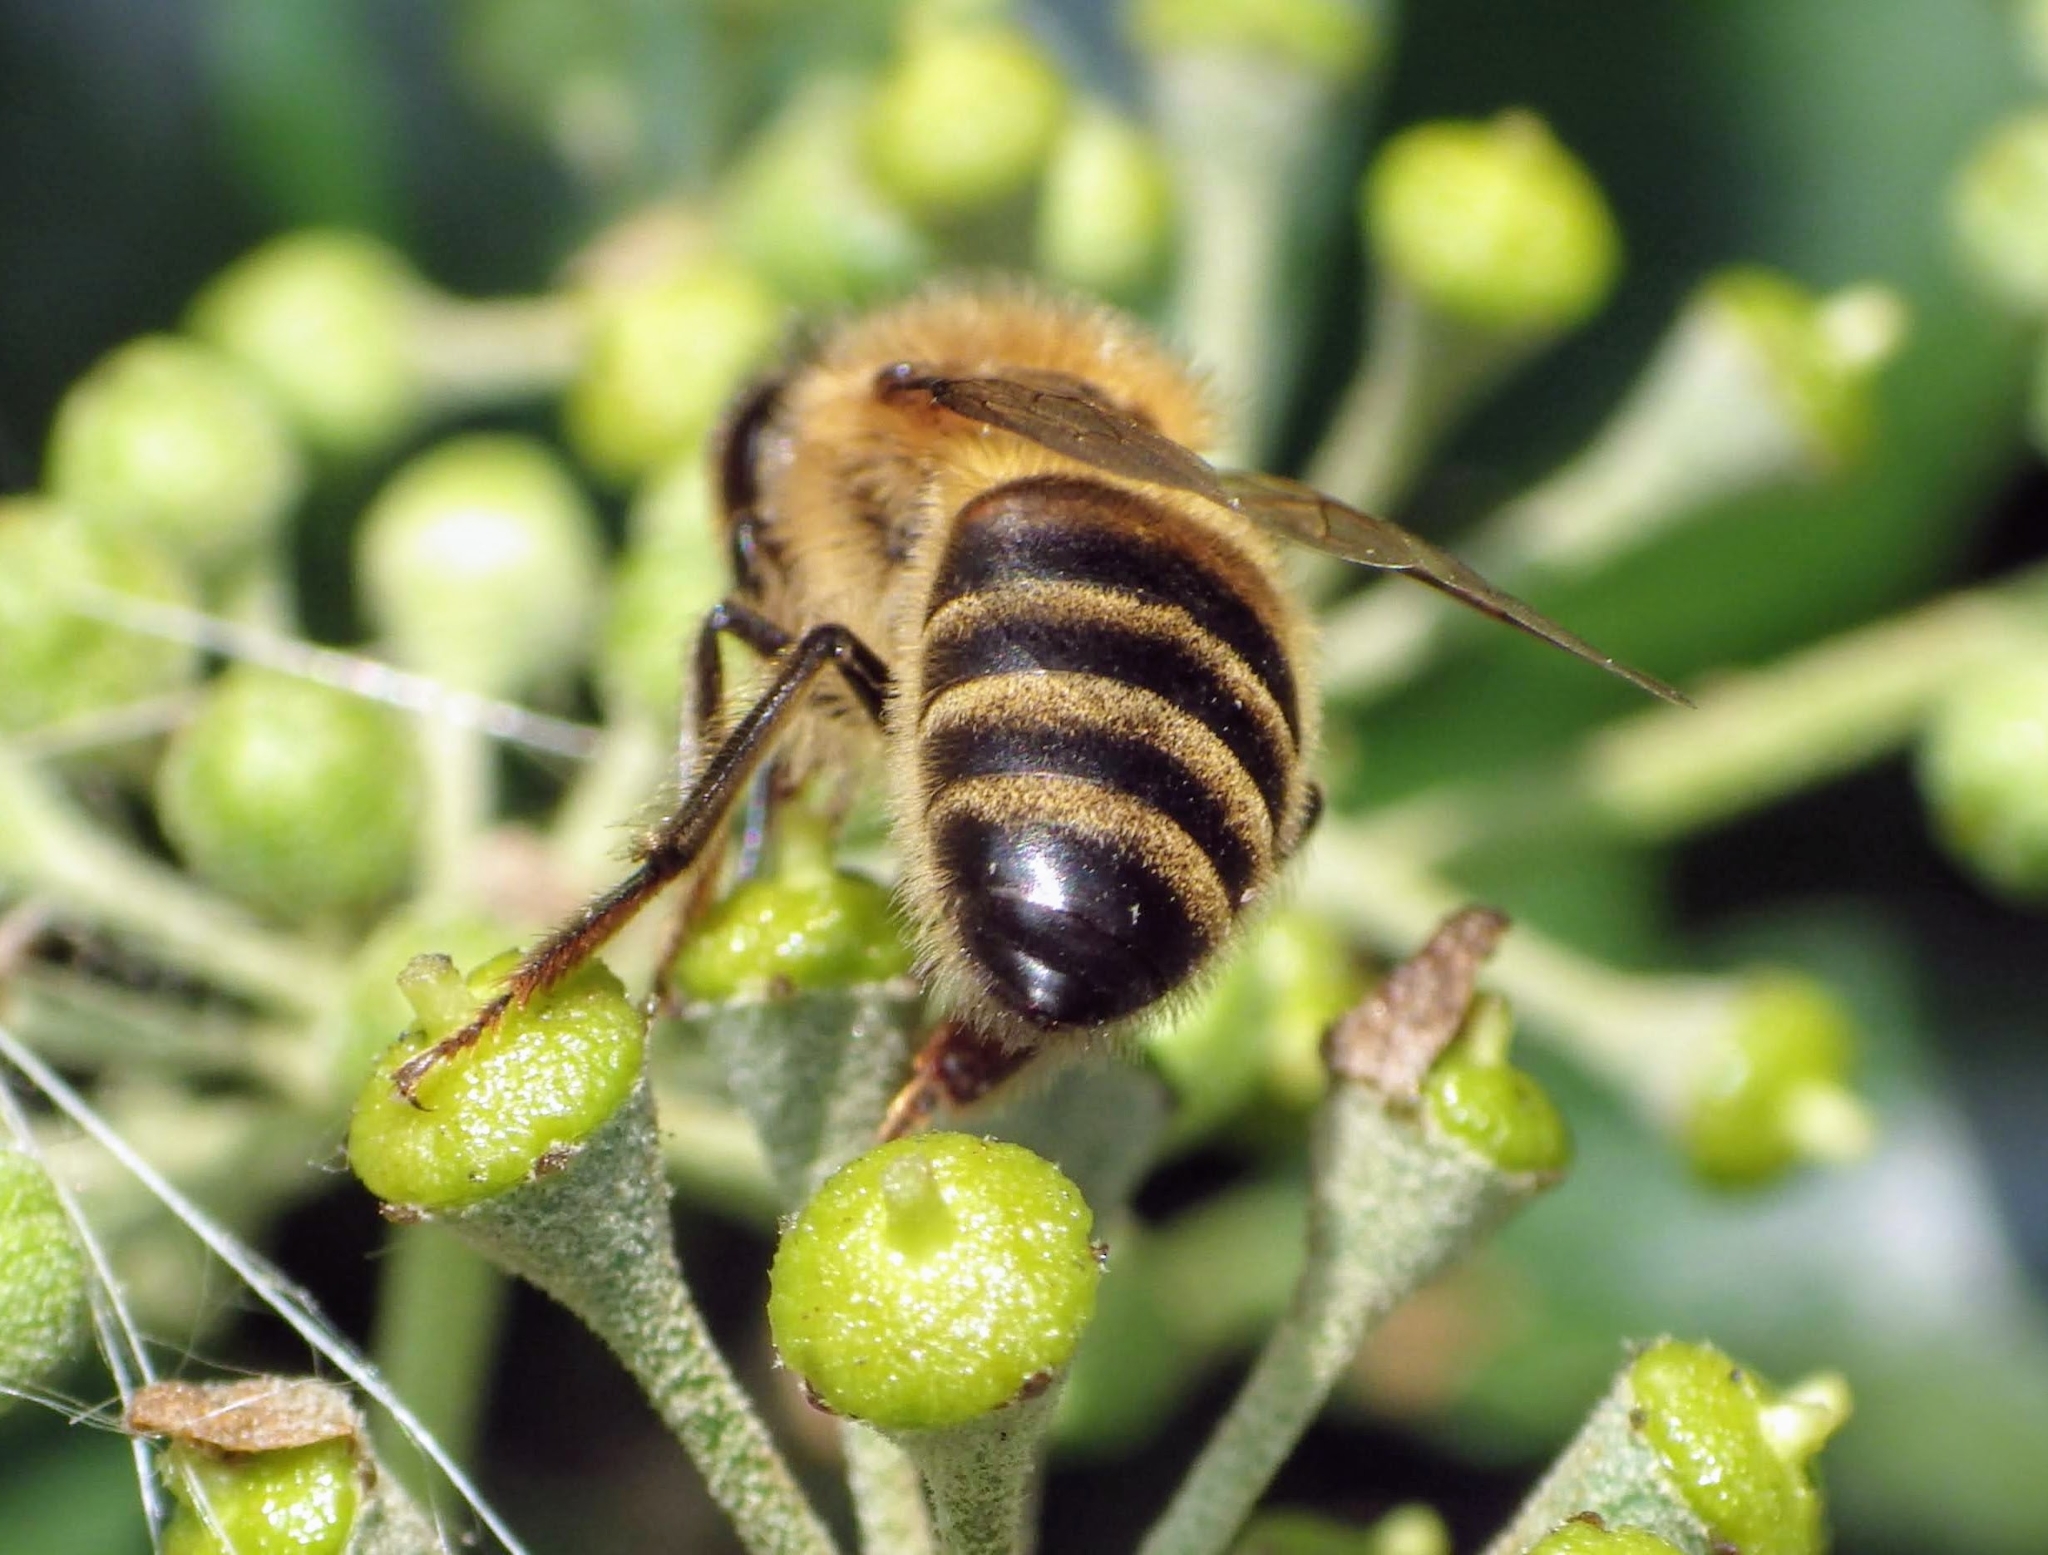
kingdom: Animalia
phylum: Arthropoda
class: Insecta
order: Hymenoptera
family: Apidae
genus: Apis
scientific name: Apis mellifera
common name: Honey bee
